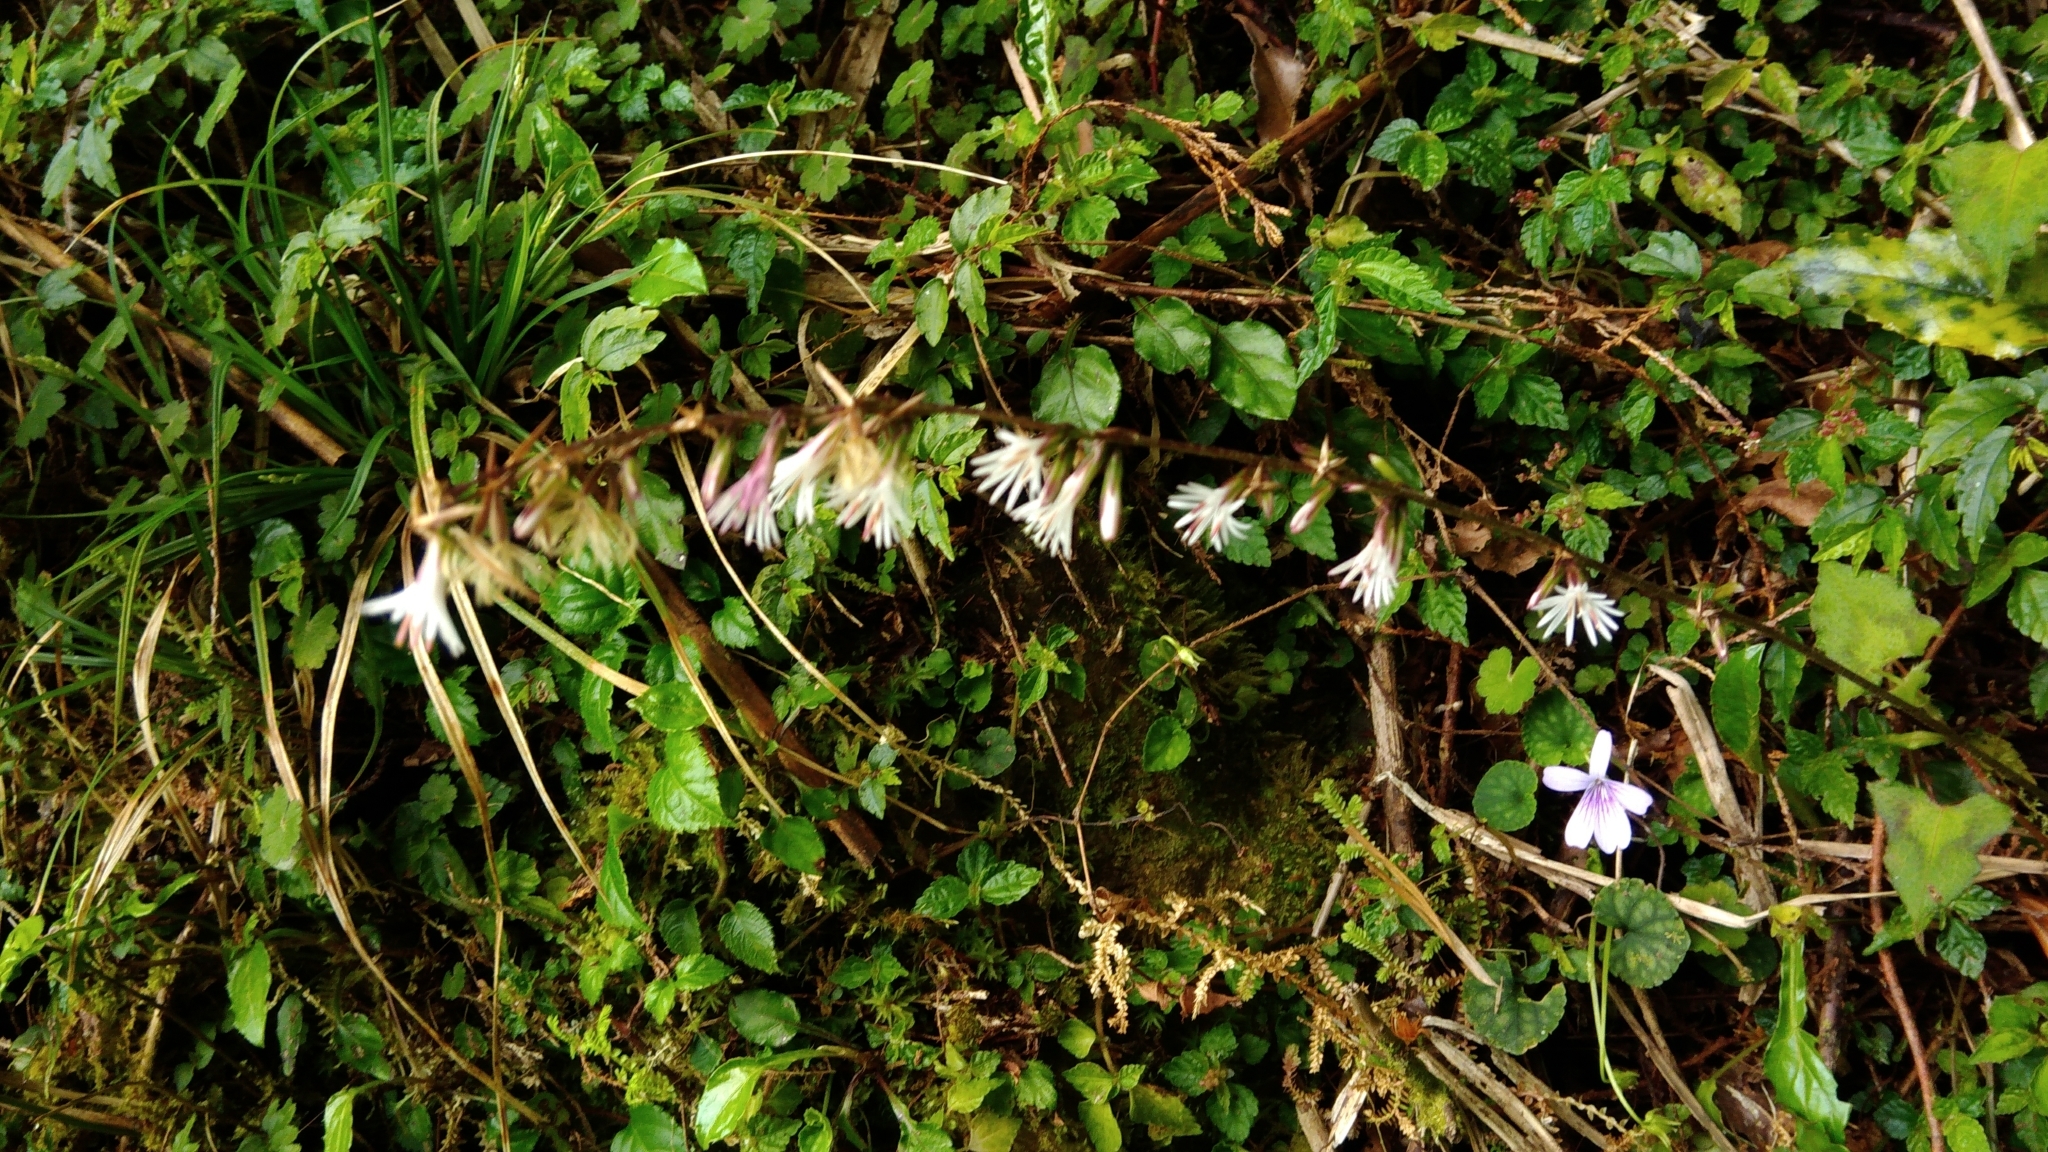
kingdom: Plantae
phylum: Tracheophyta
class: Magnoliopsida
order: Asterales
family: Asteraceae
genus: Ainsliaea
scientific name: Ainsliaea henryi
